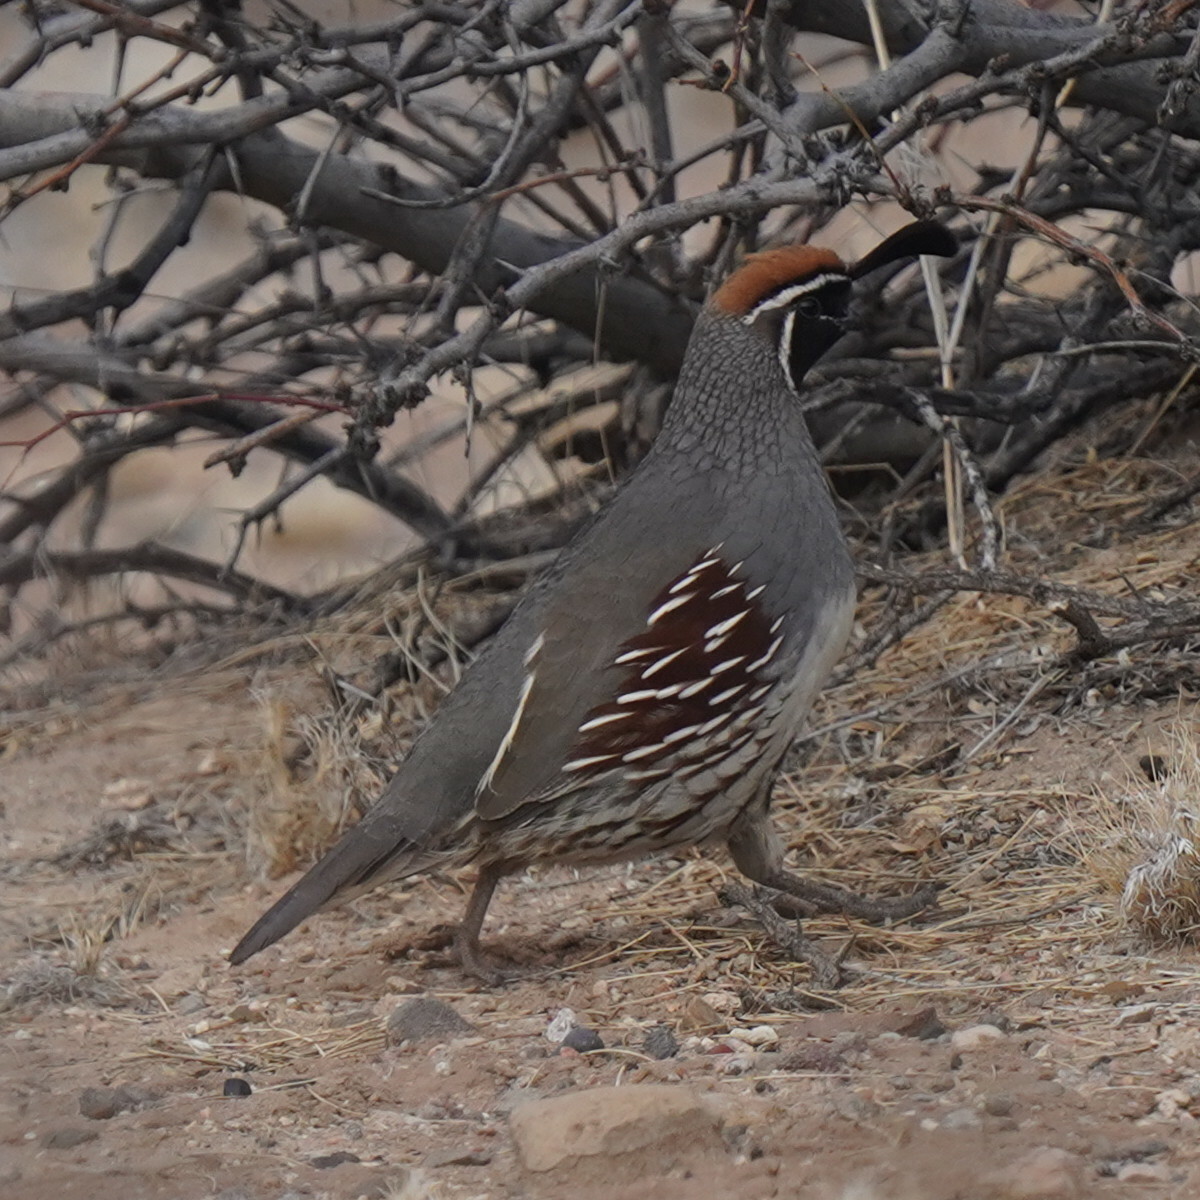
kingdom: Animalia
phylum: Chordata
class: Aves
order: Galliformes
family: Odontophoridae
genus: Callipepla
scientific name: Callipepla gambelii
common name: Gambel's quail
